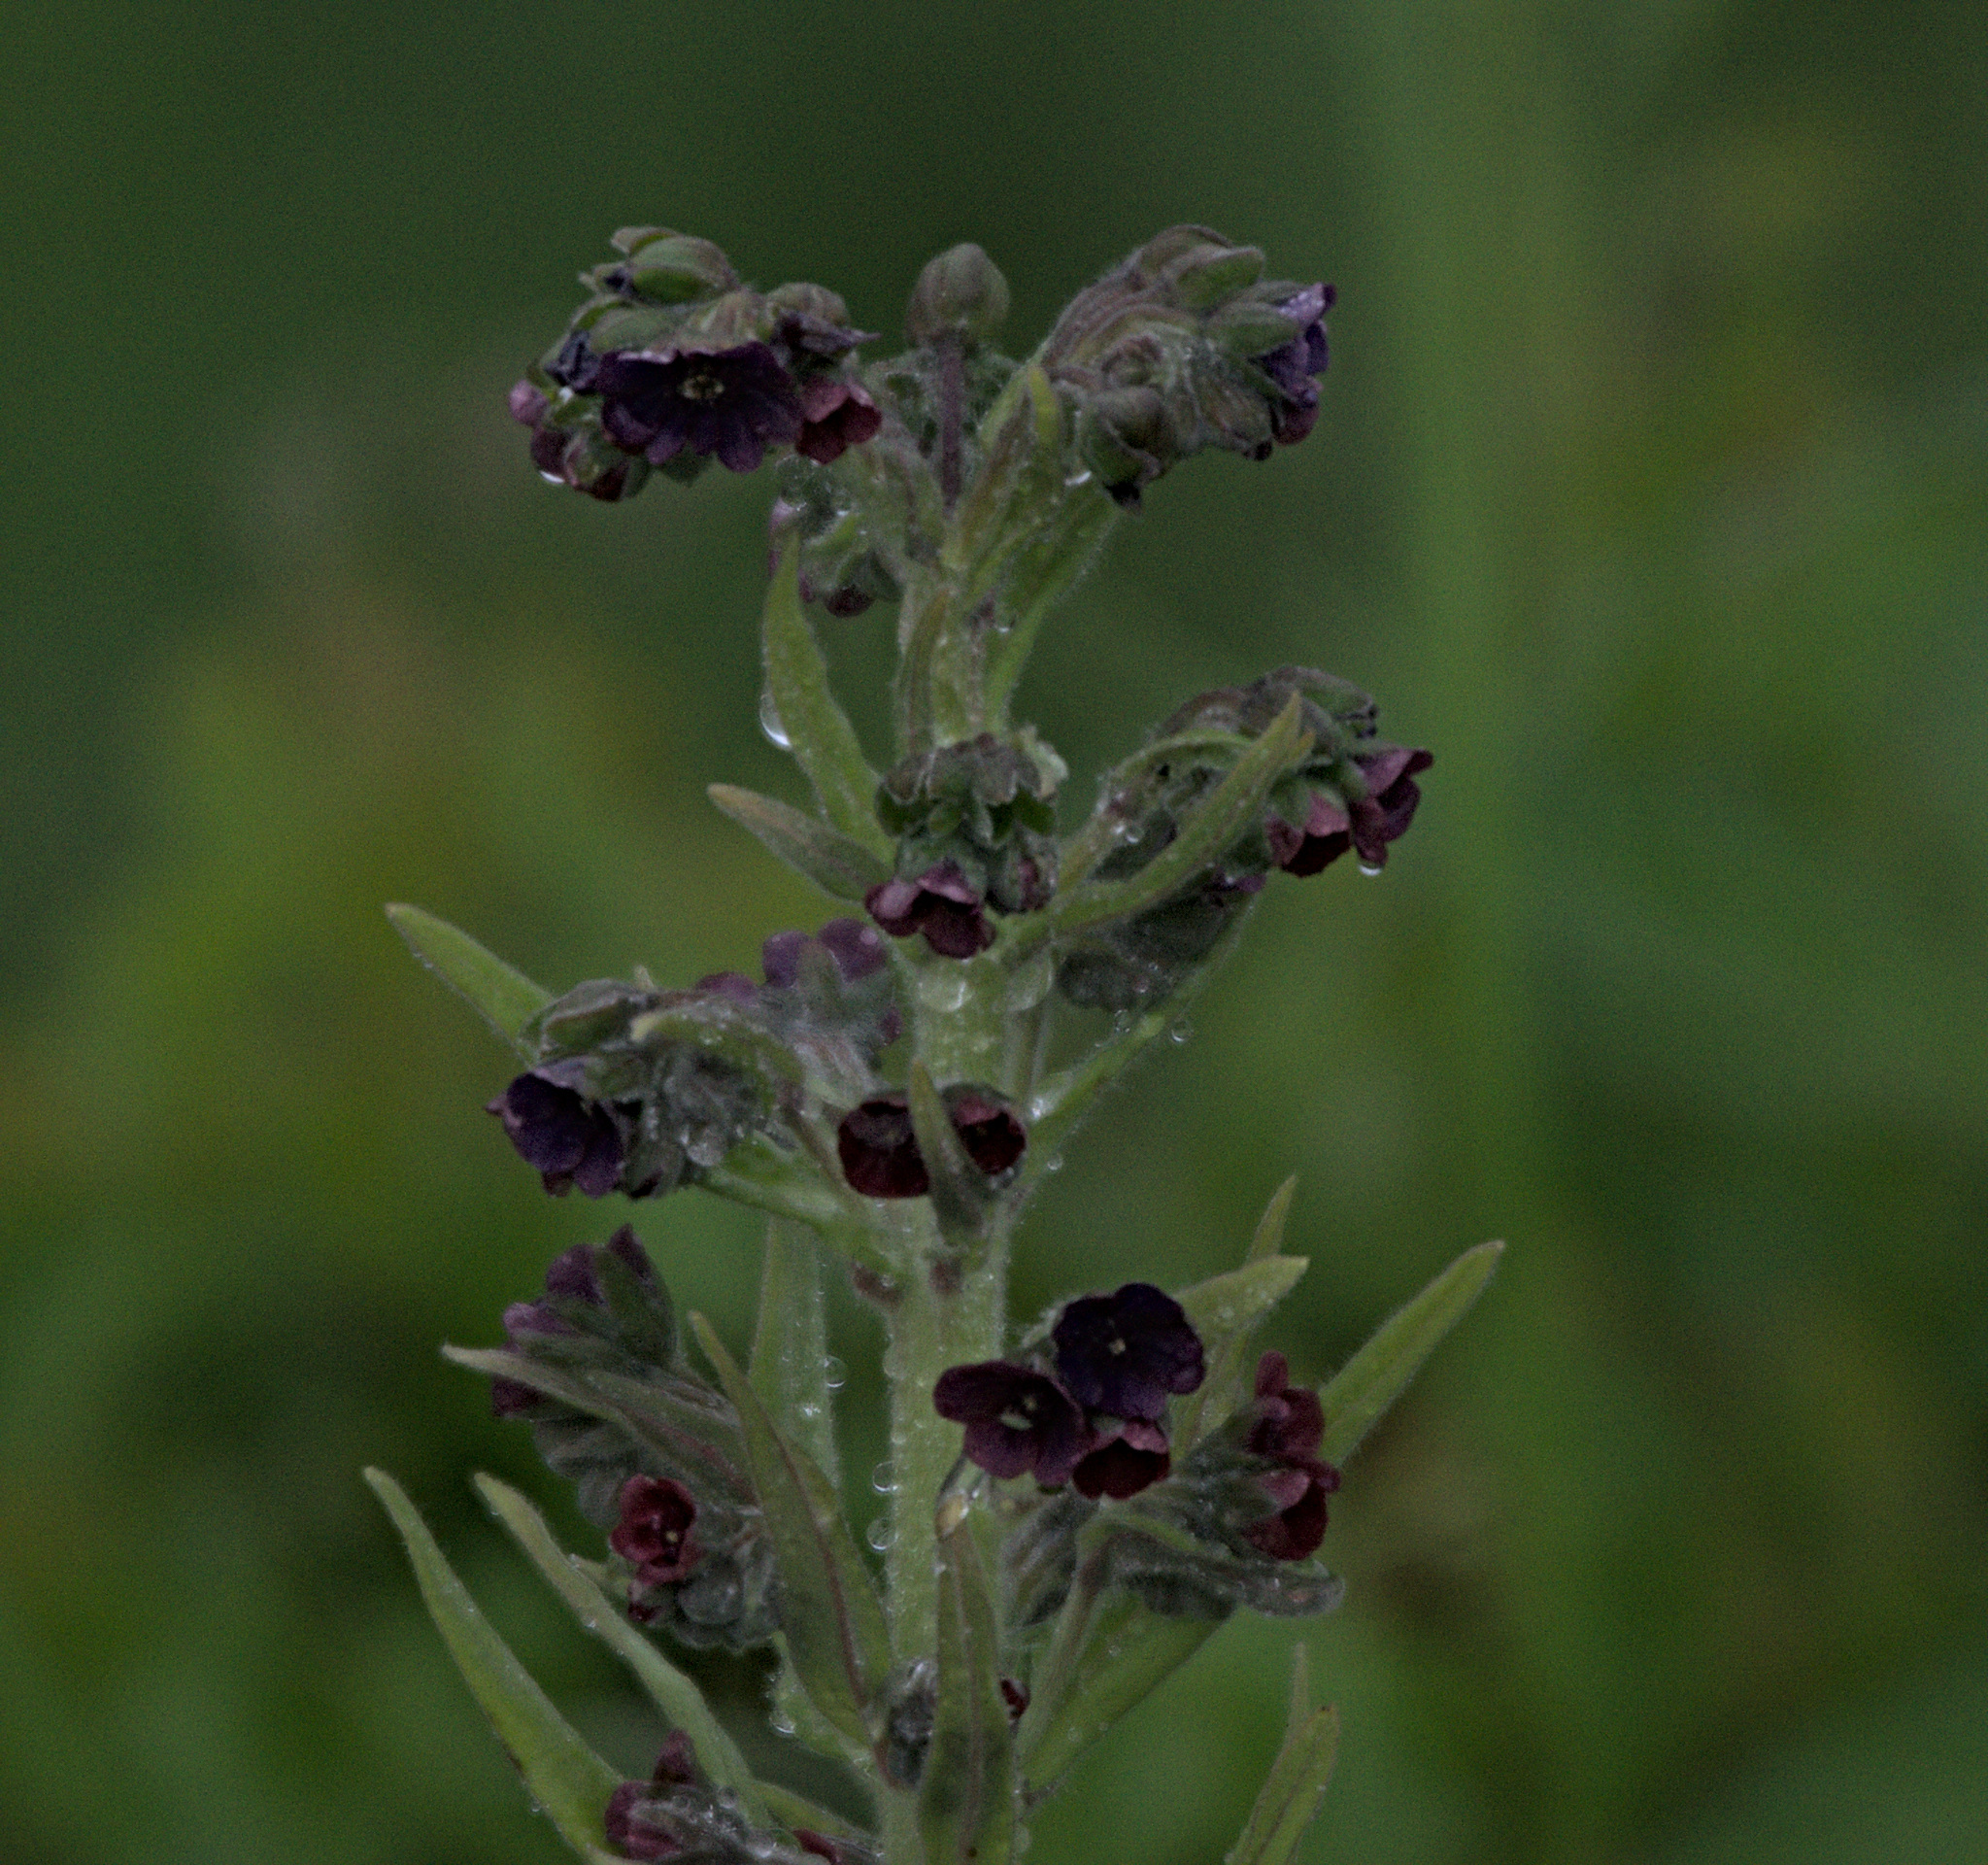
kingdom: Plantae
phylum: Tracheophyta
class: Magnoliopsida
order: Boraginales
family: Boraginaceae
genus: Cynoglossum
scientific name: Cynoglossum officinale
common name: Hound's-tongue
